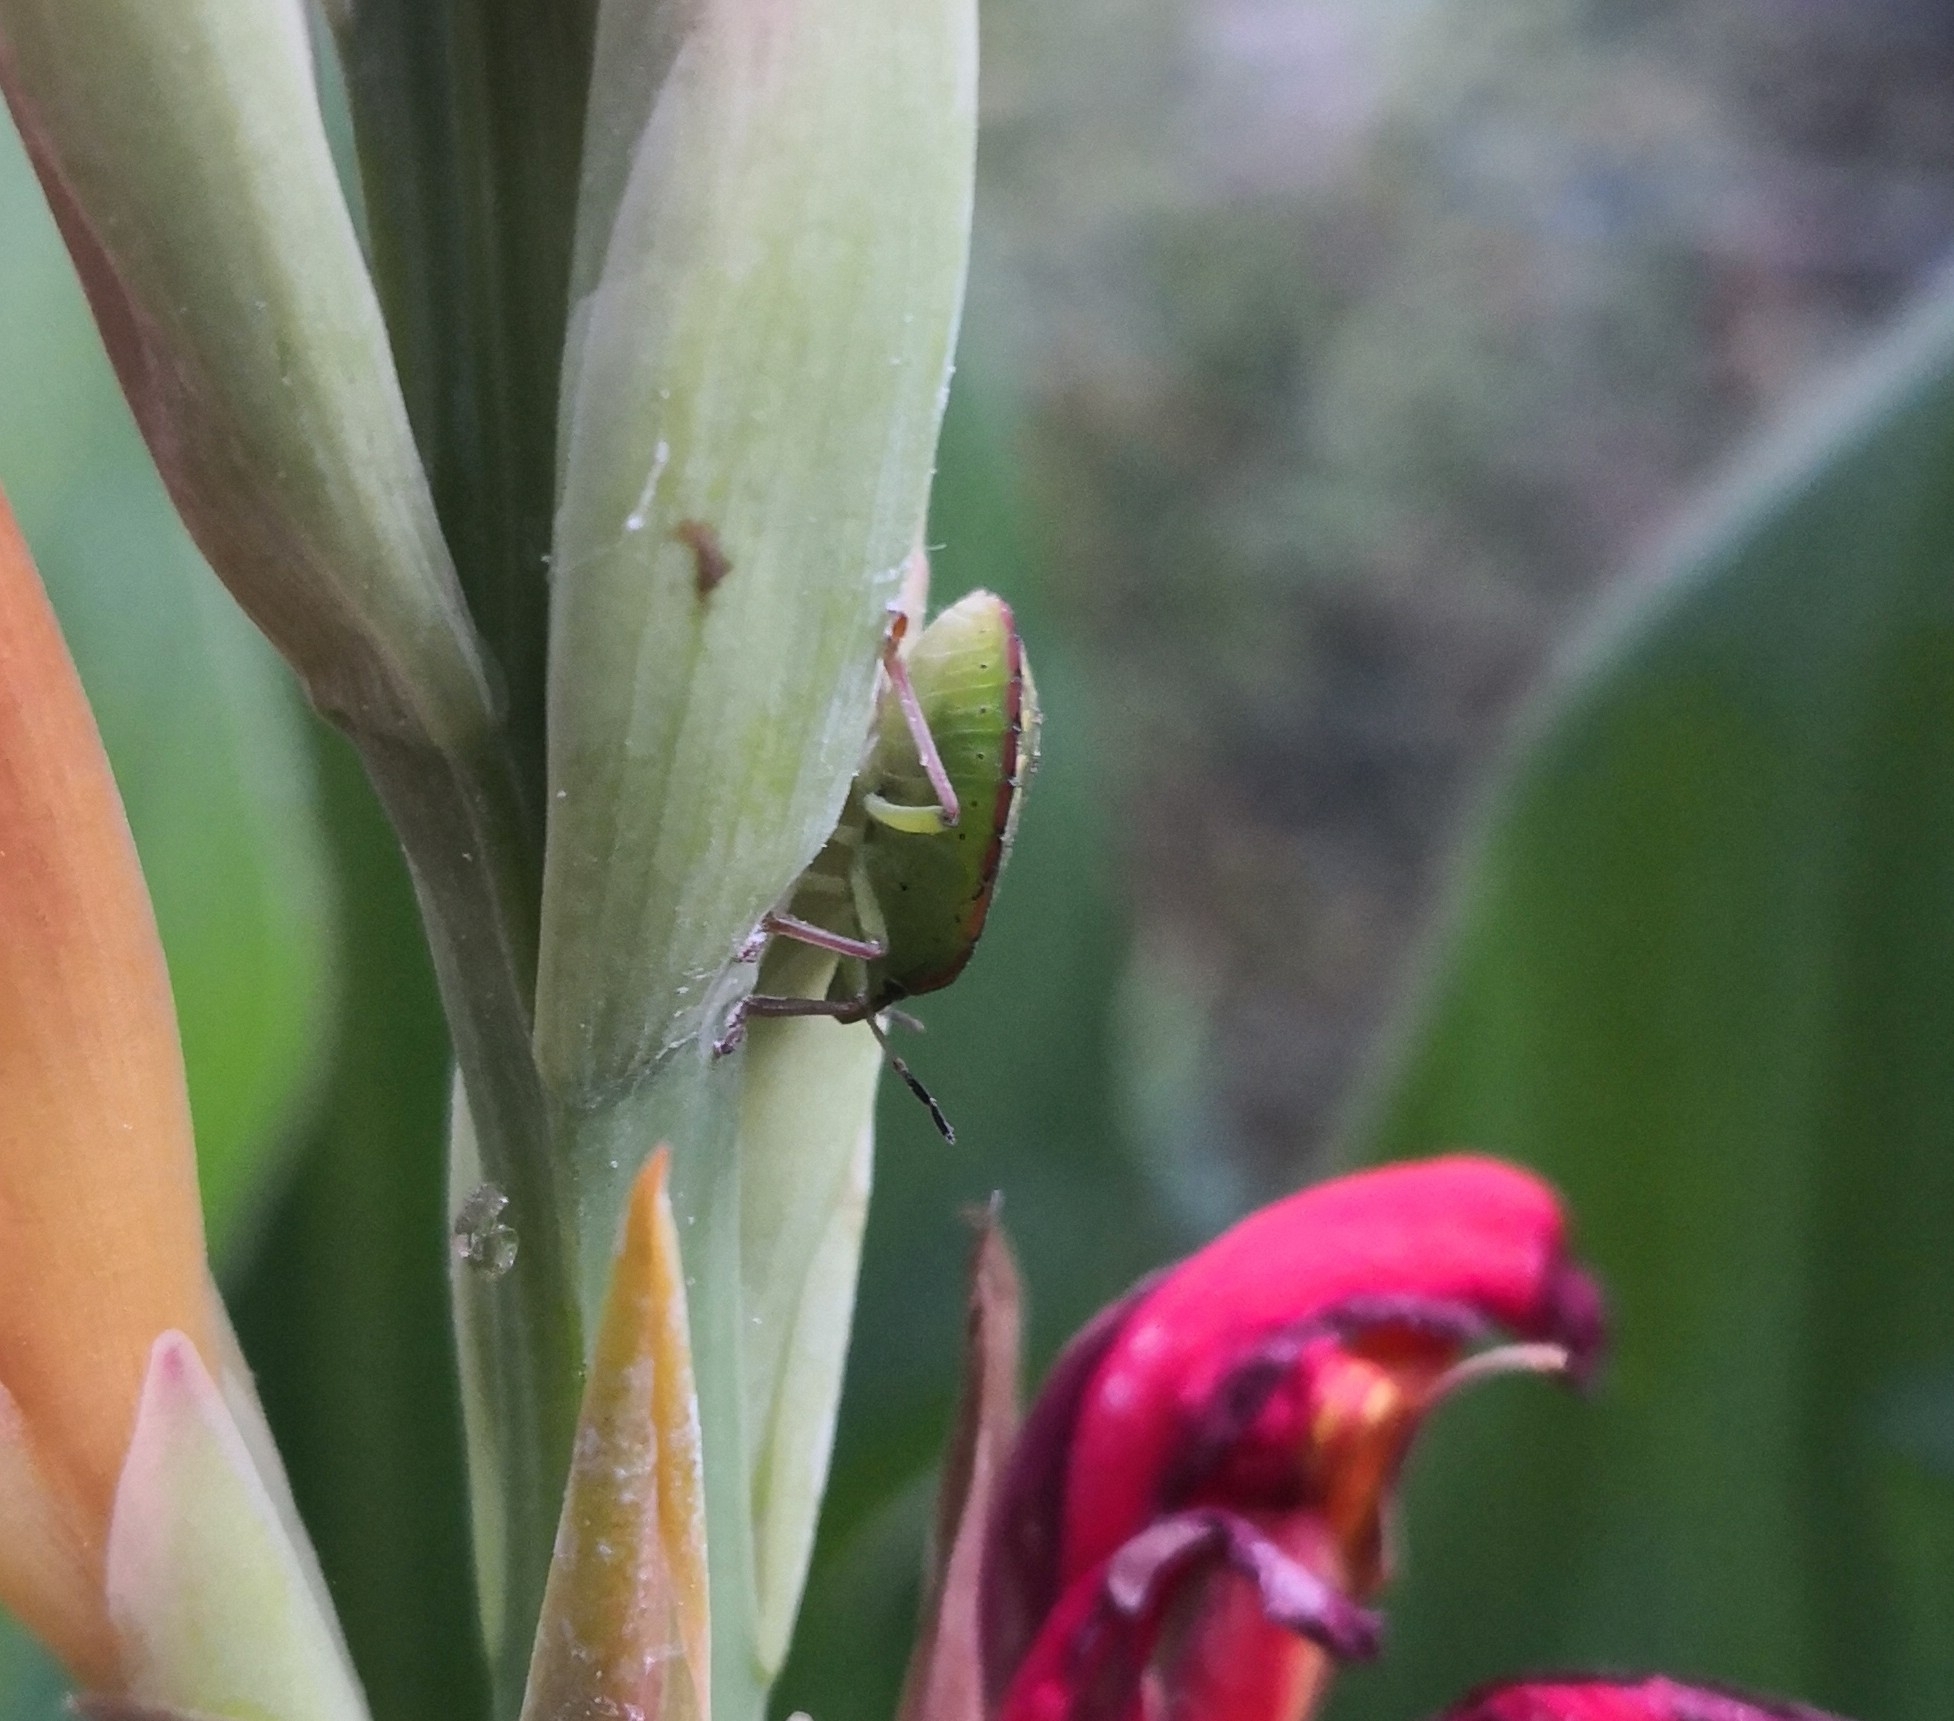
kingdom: Animalia
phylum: Arthropoda
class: Insecta
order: Hemiptera
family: Pentatomidae
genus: Nezara
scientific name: Nezara viridula
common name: Southern green stink bug
